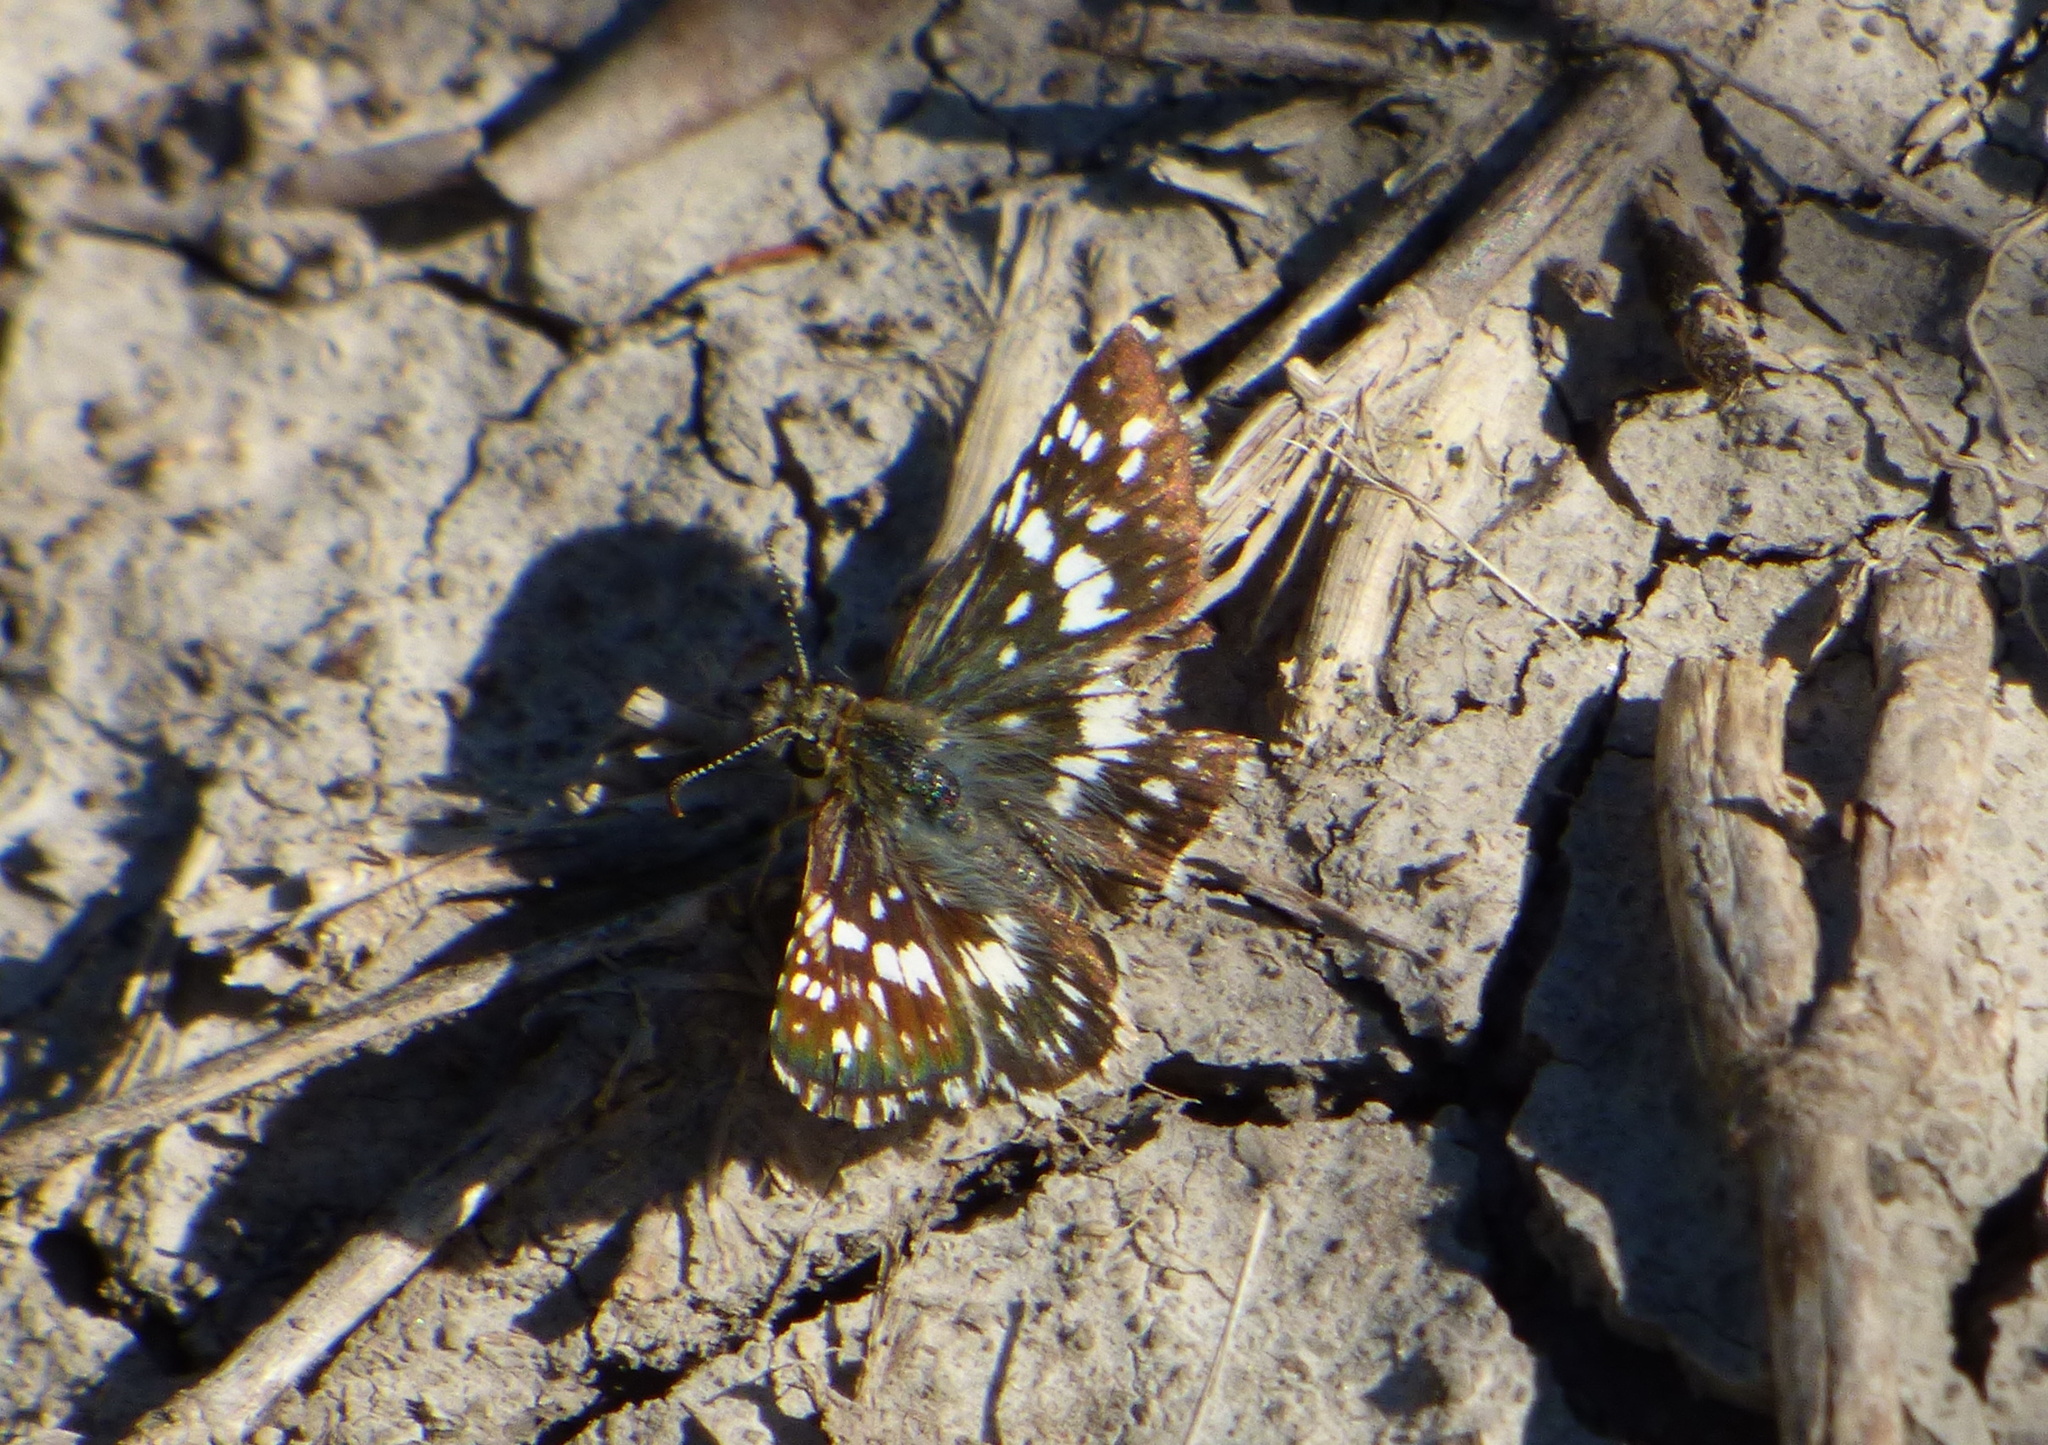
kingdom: Animalia
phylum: Arthropoda
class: Insecta
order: Lepidoptera
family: Hesperiidae
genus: Burnsius
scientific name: Burnsius orcynoides
